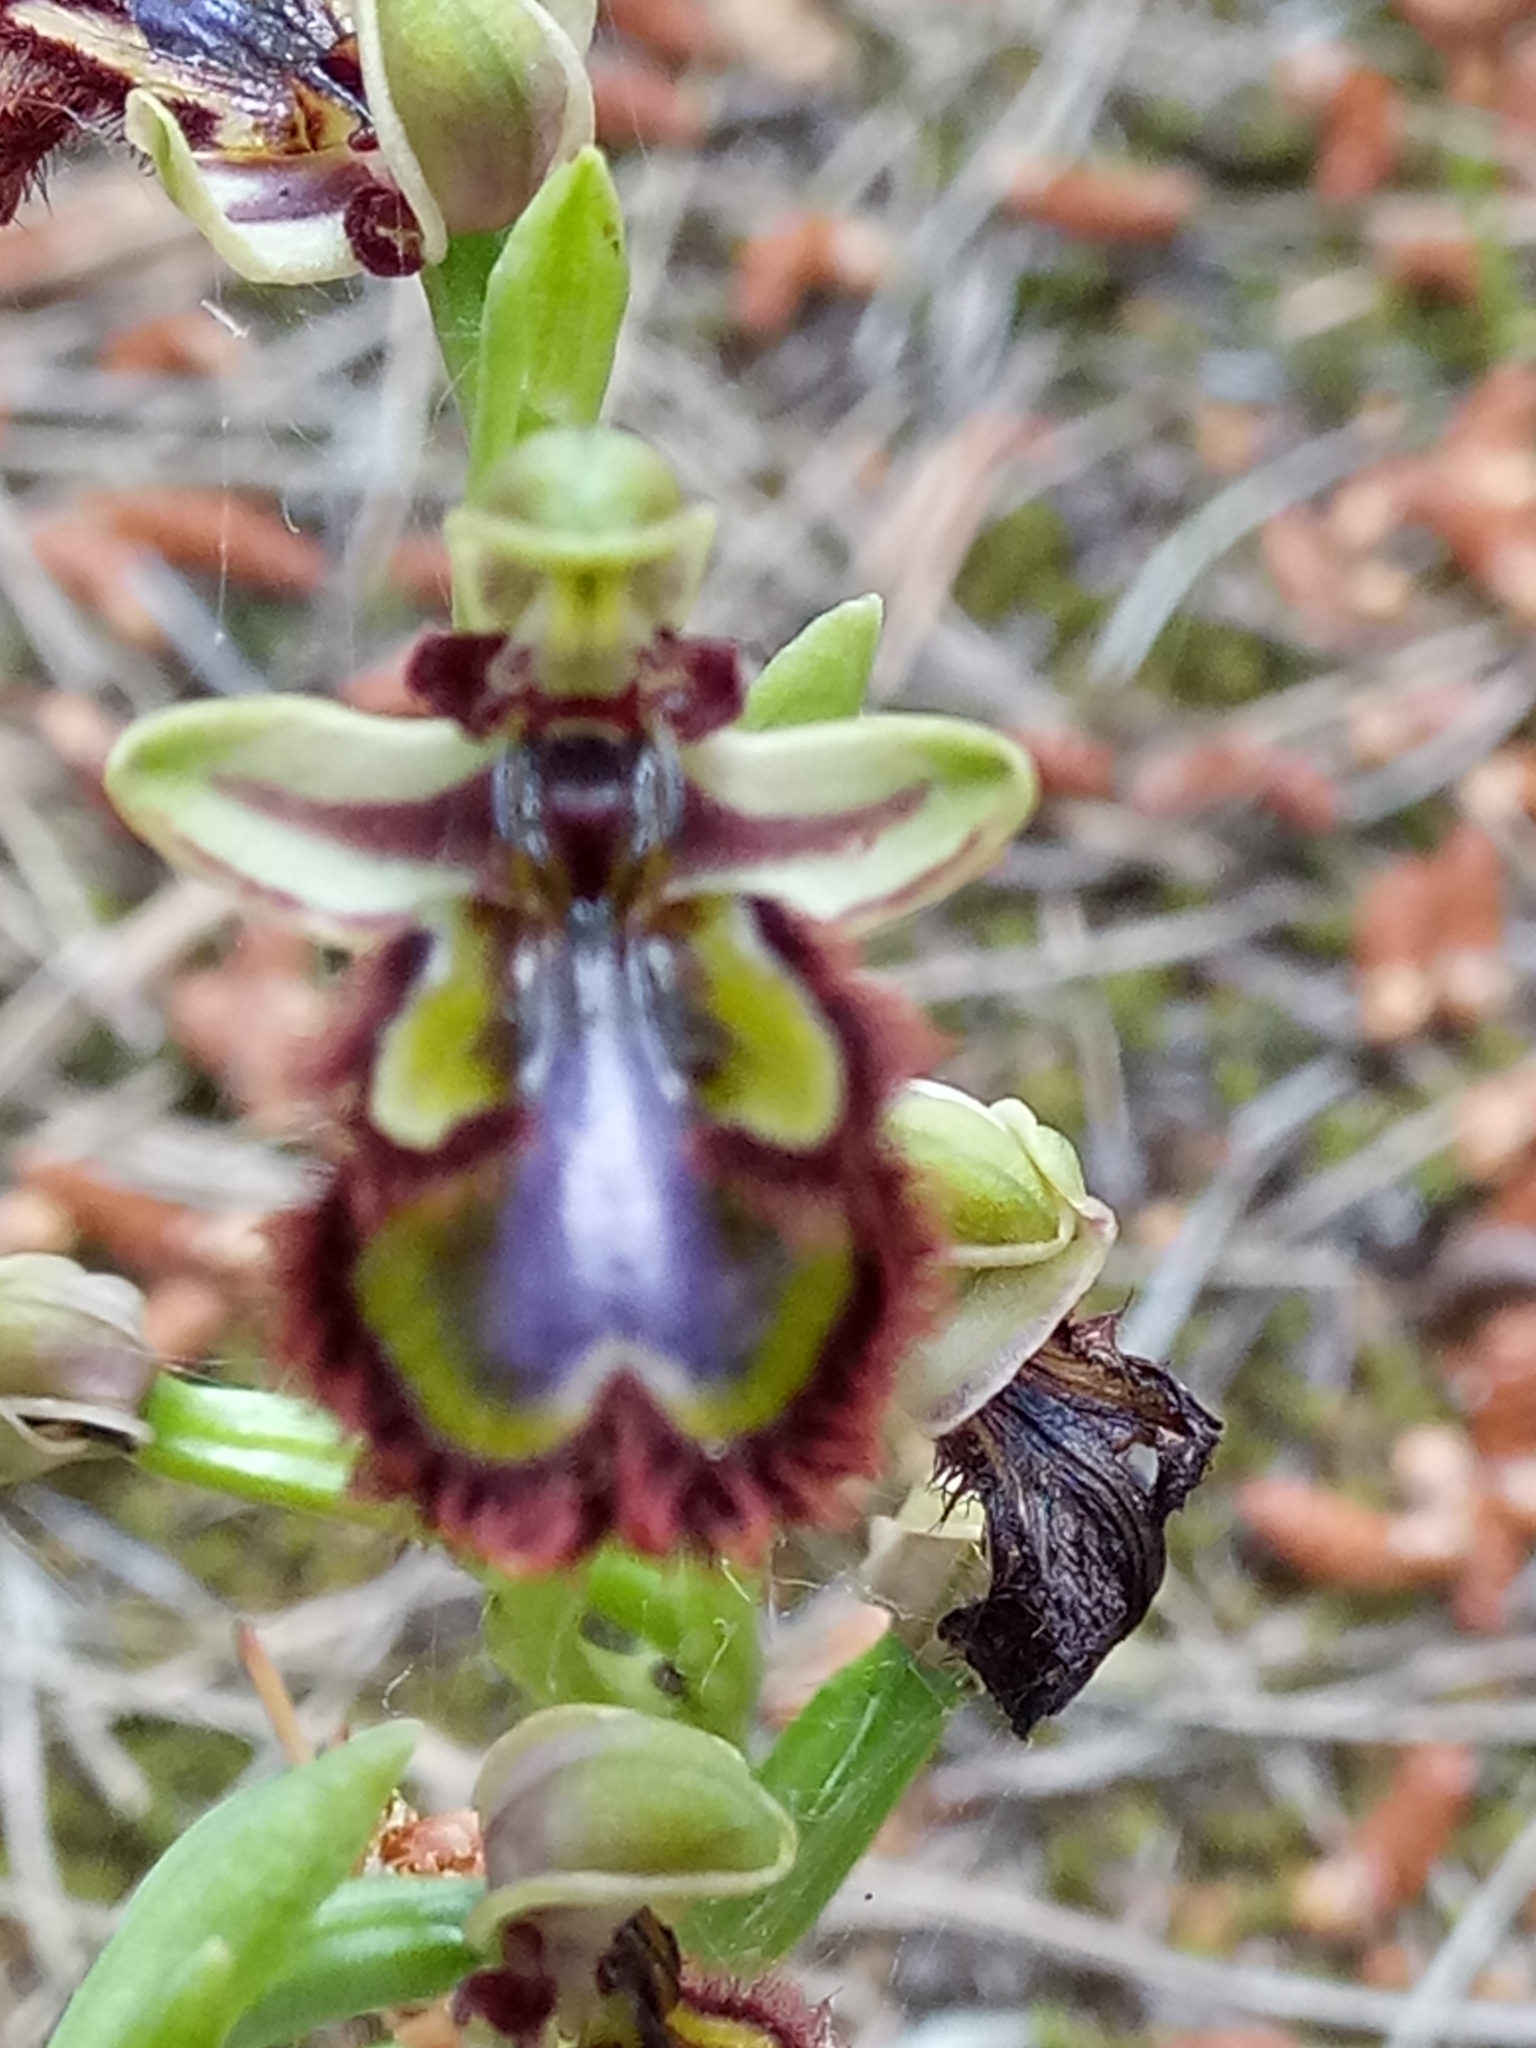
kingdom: Plantae
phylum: Tracheophyta
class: Liliopsida
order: Asparagales
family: Orchidaceae
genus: Ophrys
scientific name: Ophrys speculum
